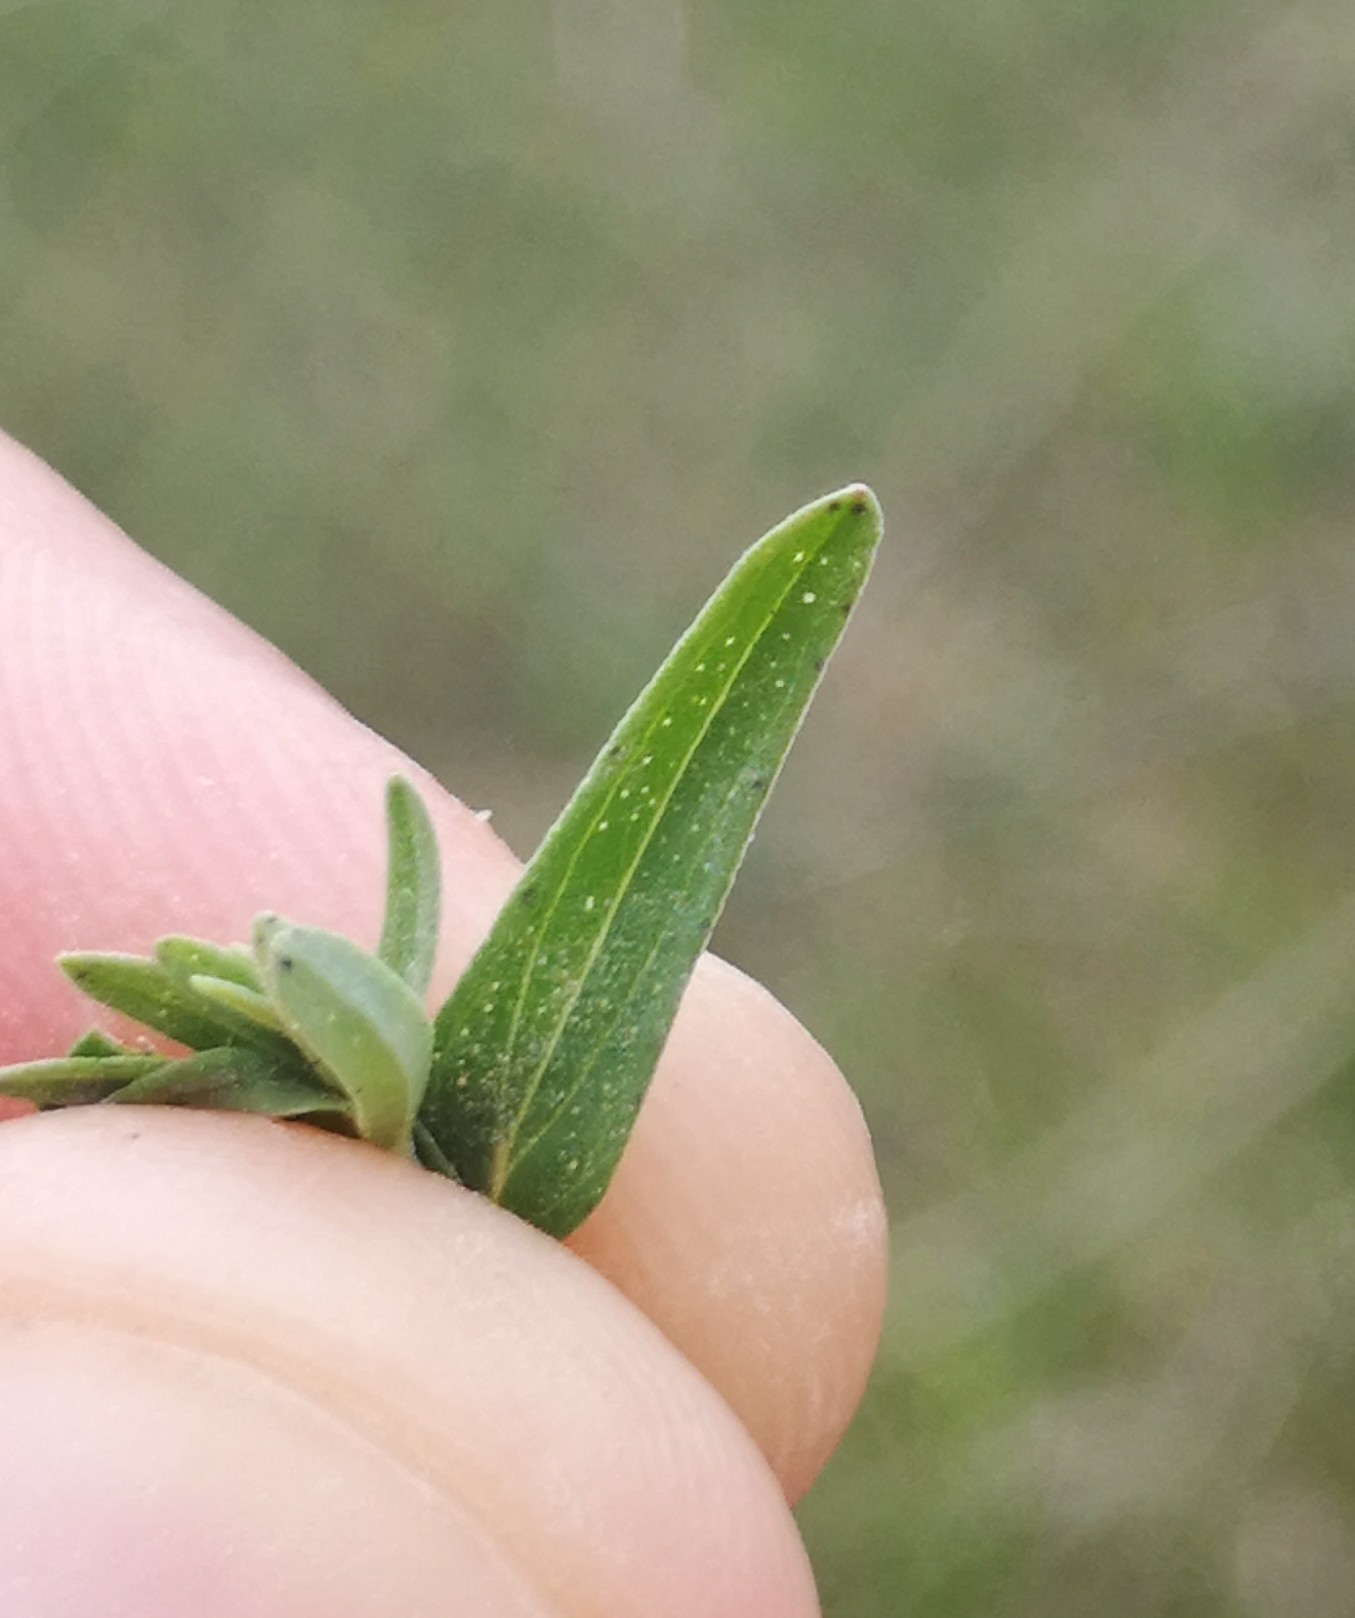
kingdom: Plantae
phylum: Tracheophyta
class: Magnoliopsida
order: Malpighiales
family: Hypericaceae
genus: Hypericum
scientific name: Hypericum perforatum
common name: Common st. johnswort
